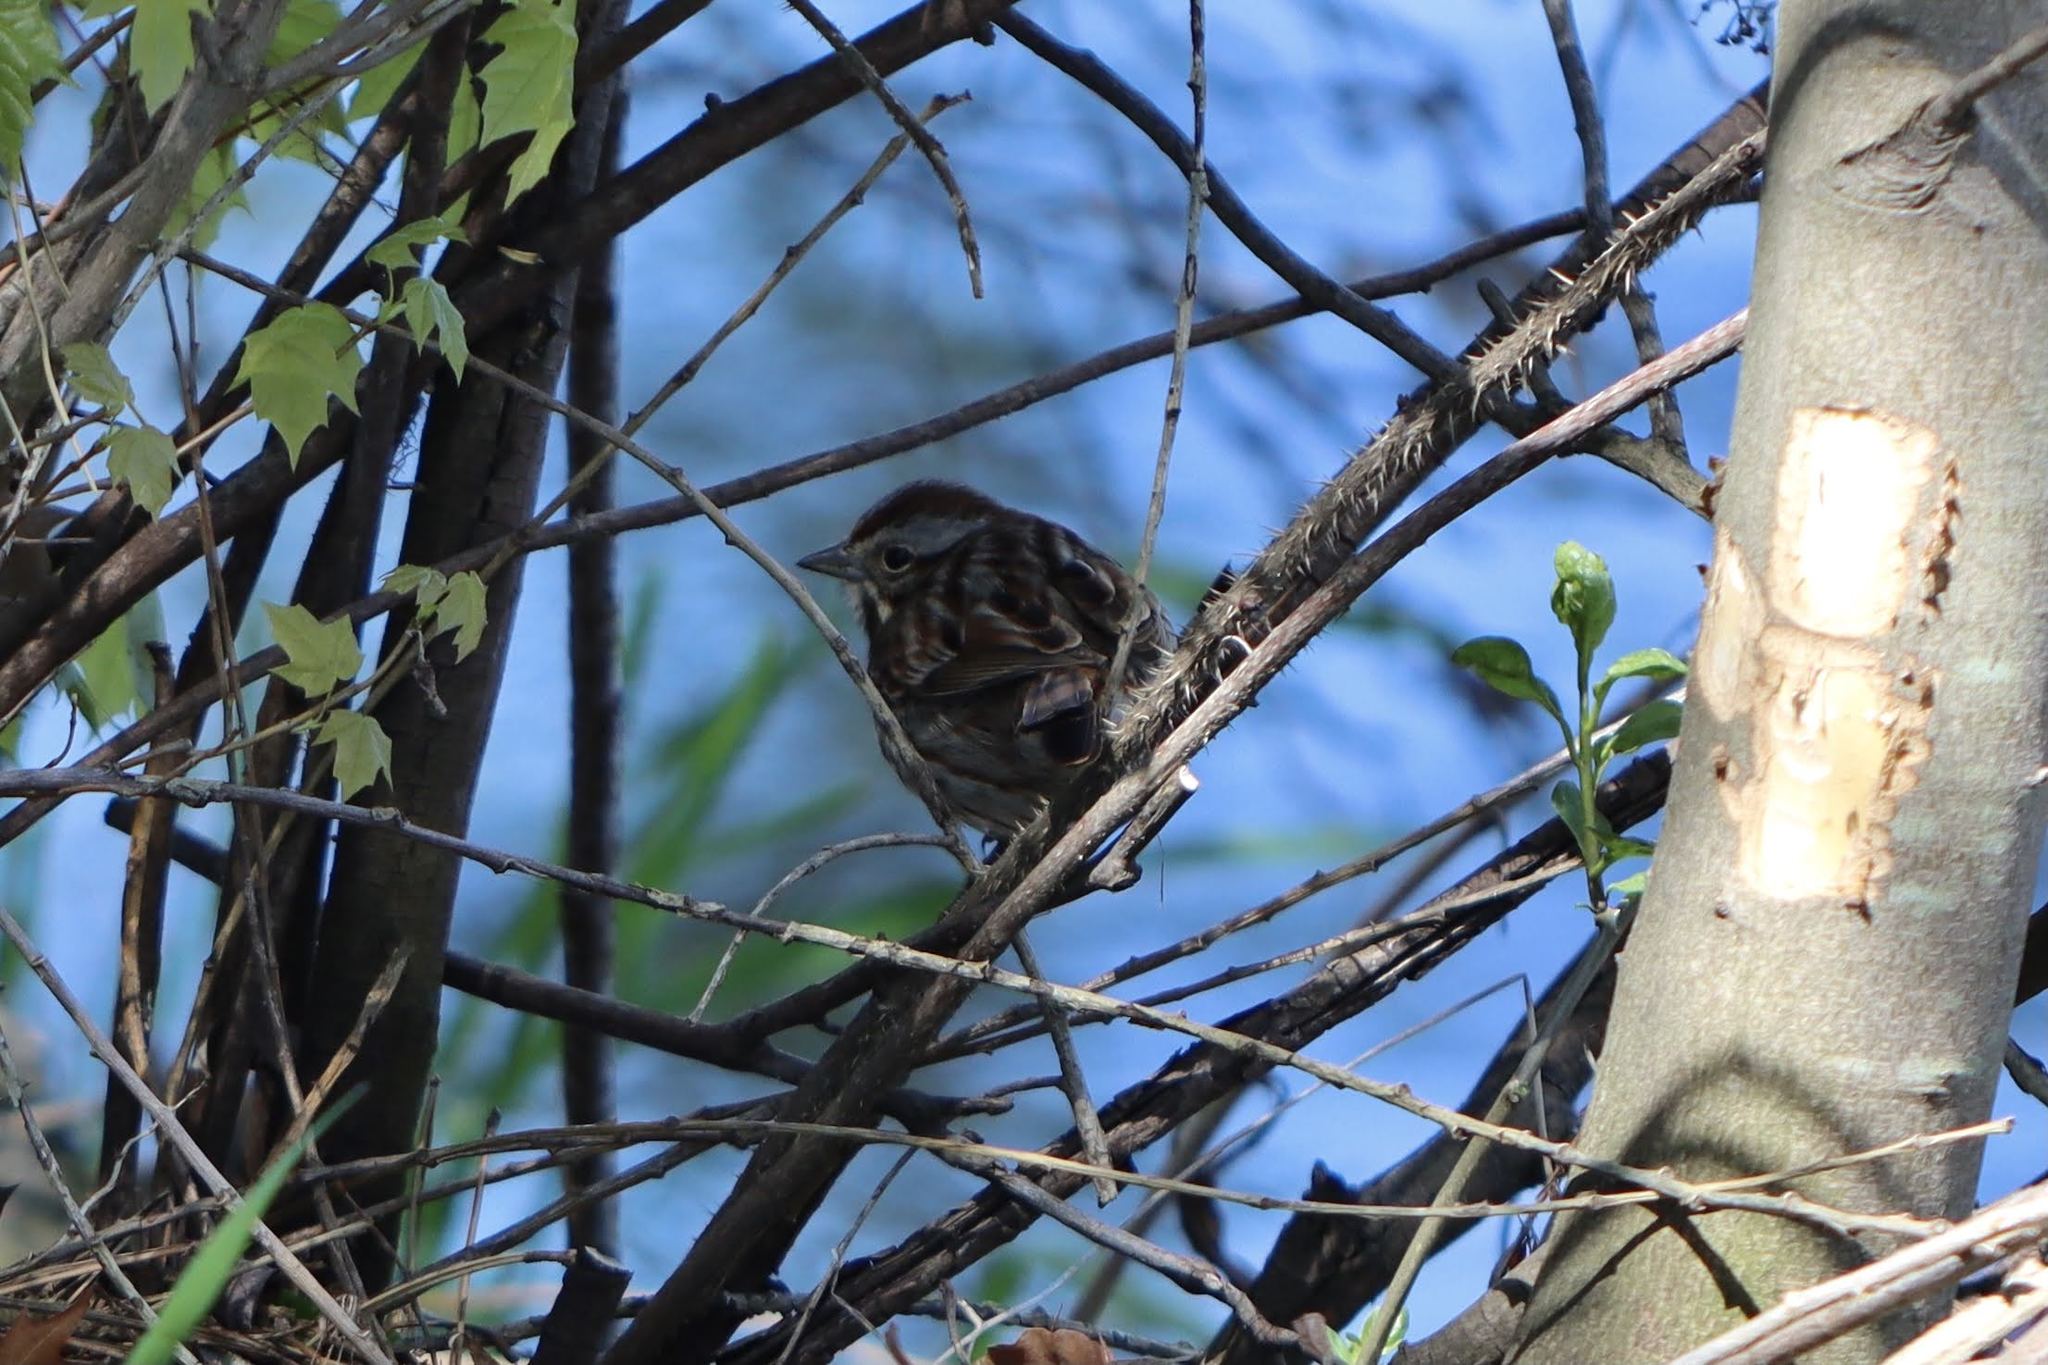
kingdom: Animalia
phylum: Chordata
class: Aves
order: Passeriformes
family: Passerellidae
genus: Melospiza
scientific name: Melospiza melodia
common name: Song sparrow
